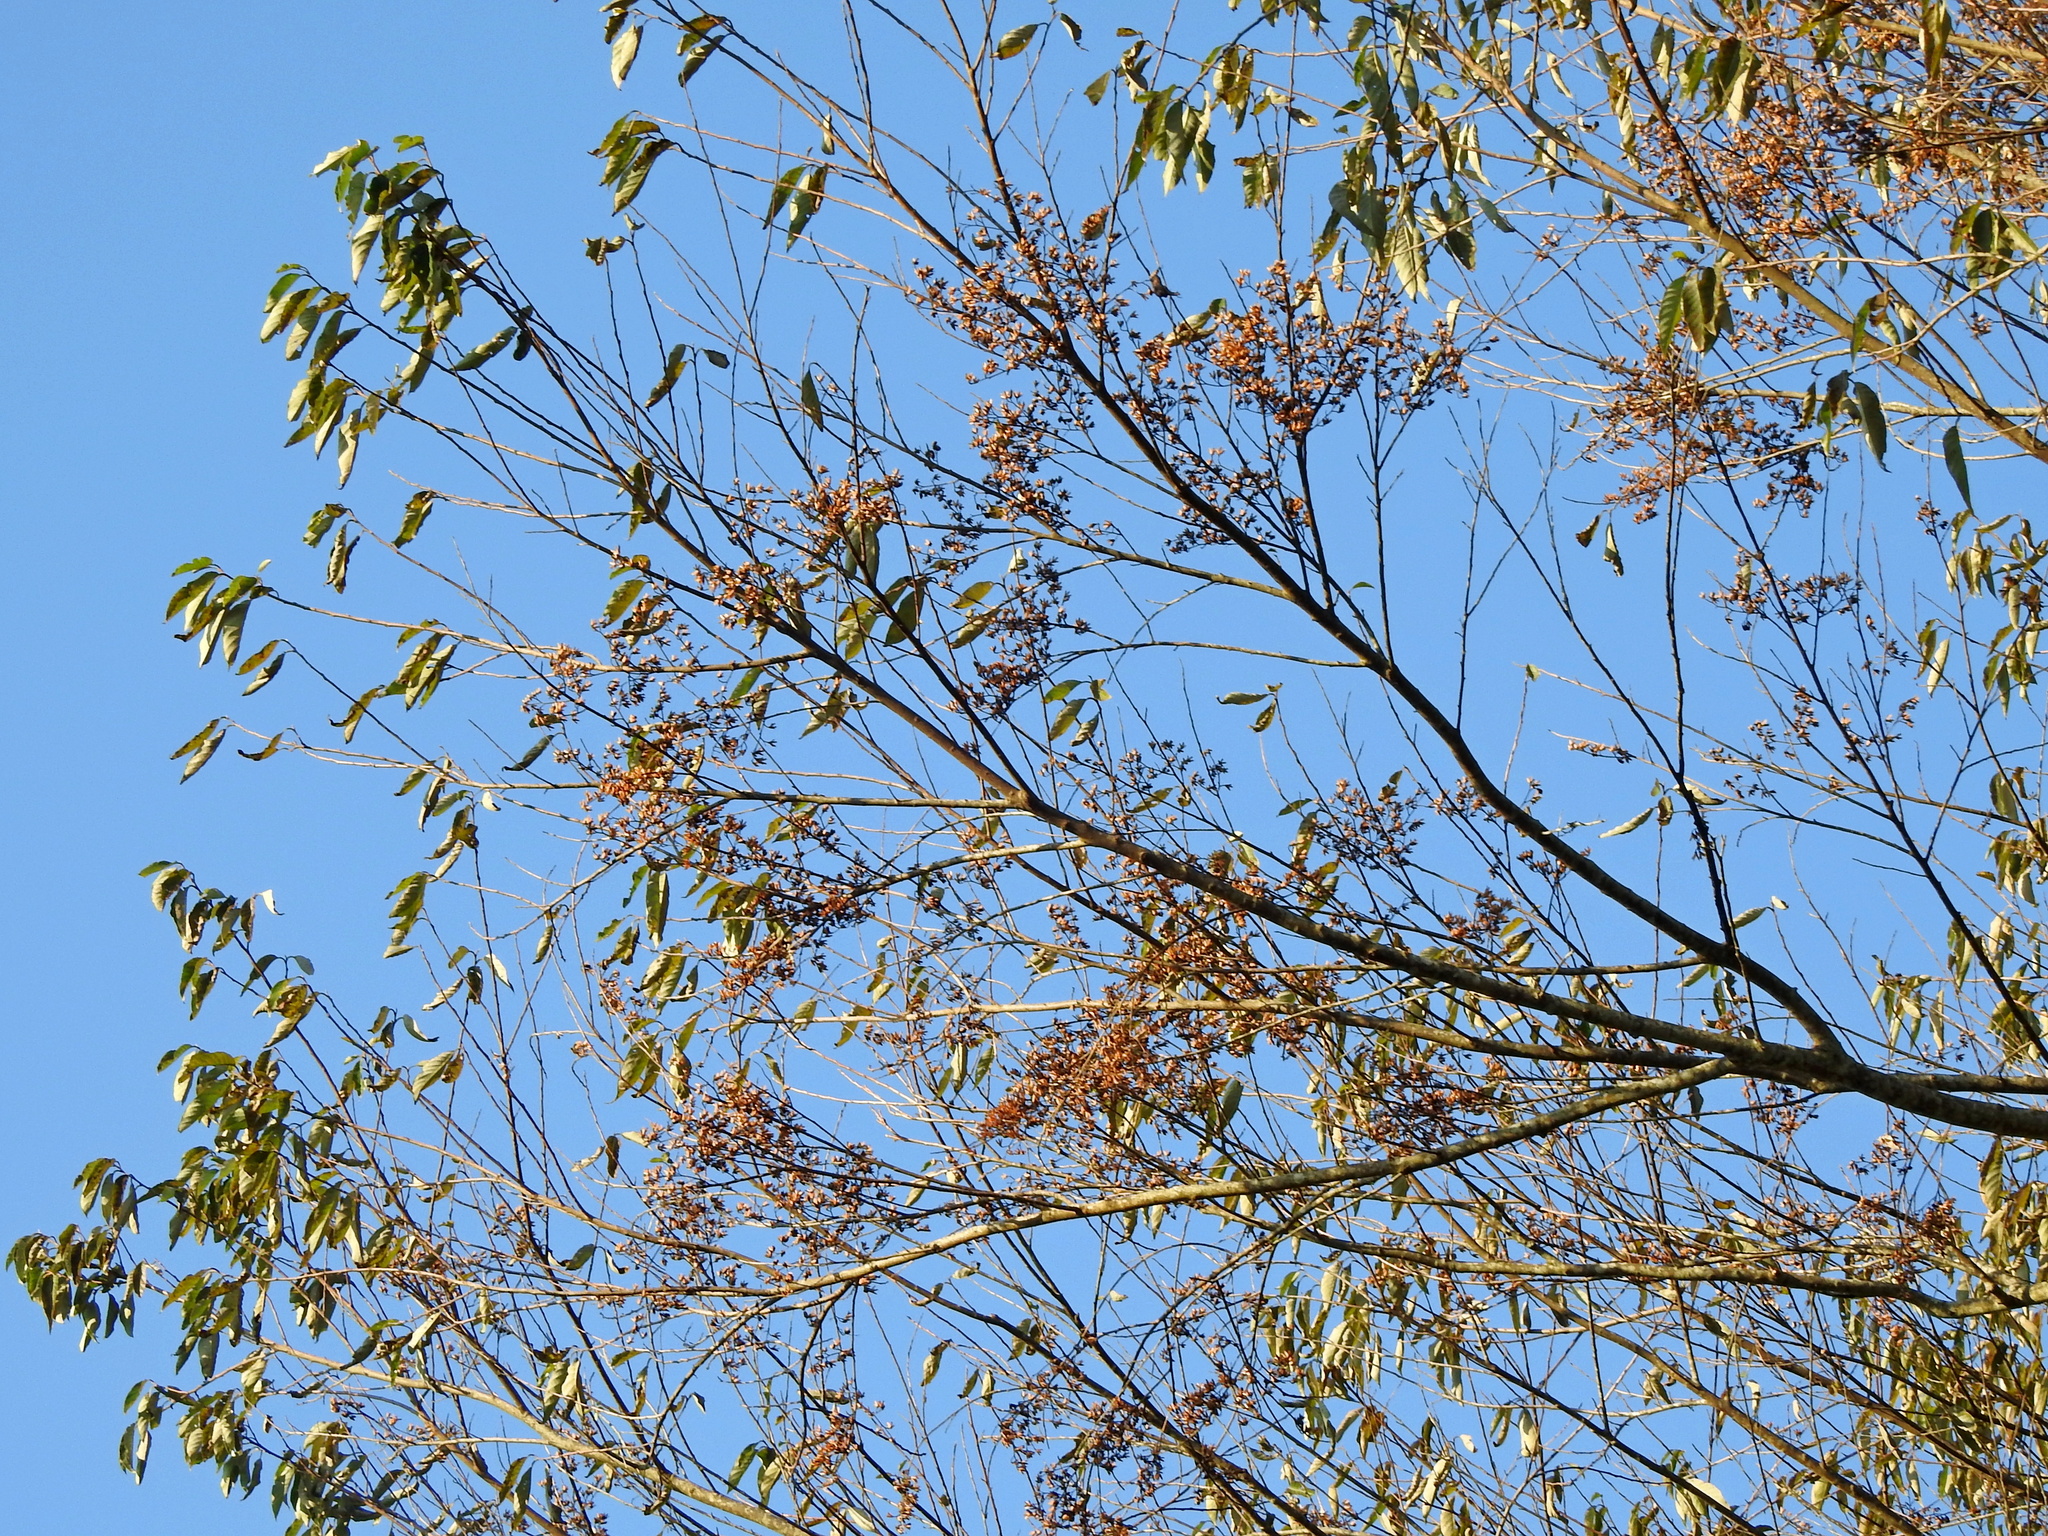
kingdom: Plantae
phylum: Tracheophyta
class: Magnoliopsida
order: Ericales
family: Styracaceae
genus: Alniphyllum
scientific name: Alniphyllum pterospermum
